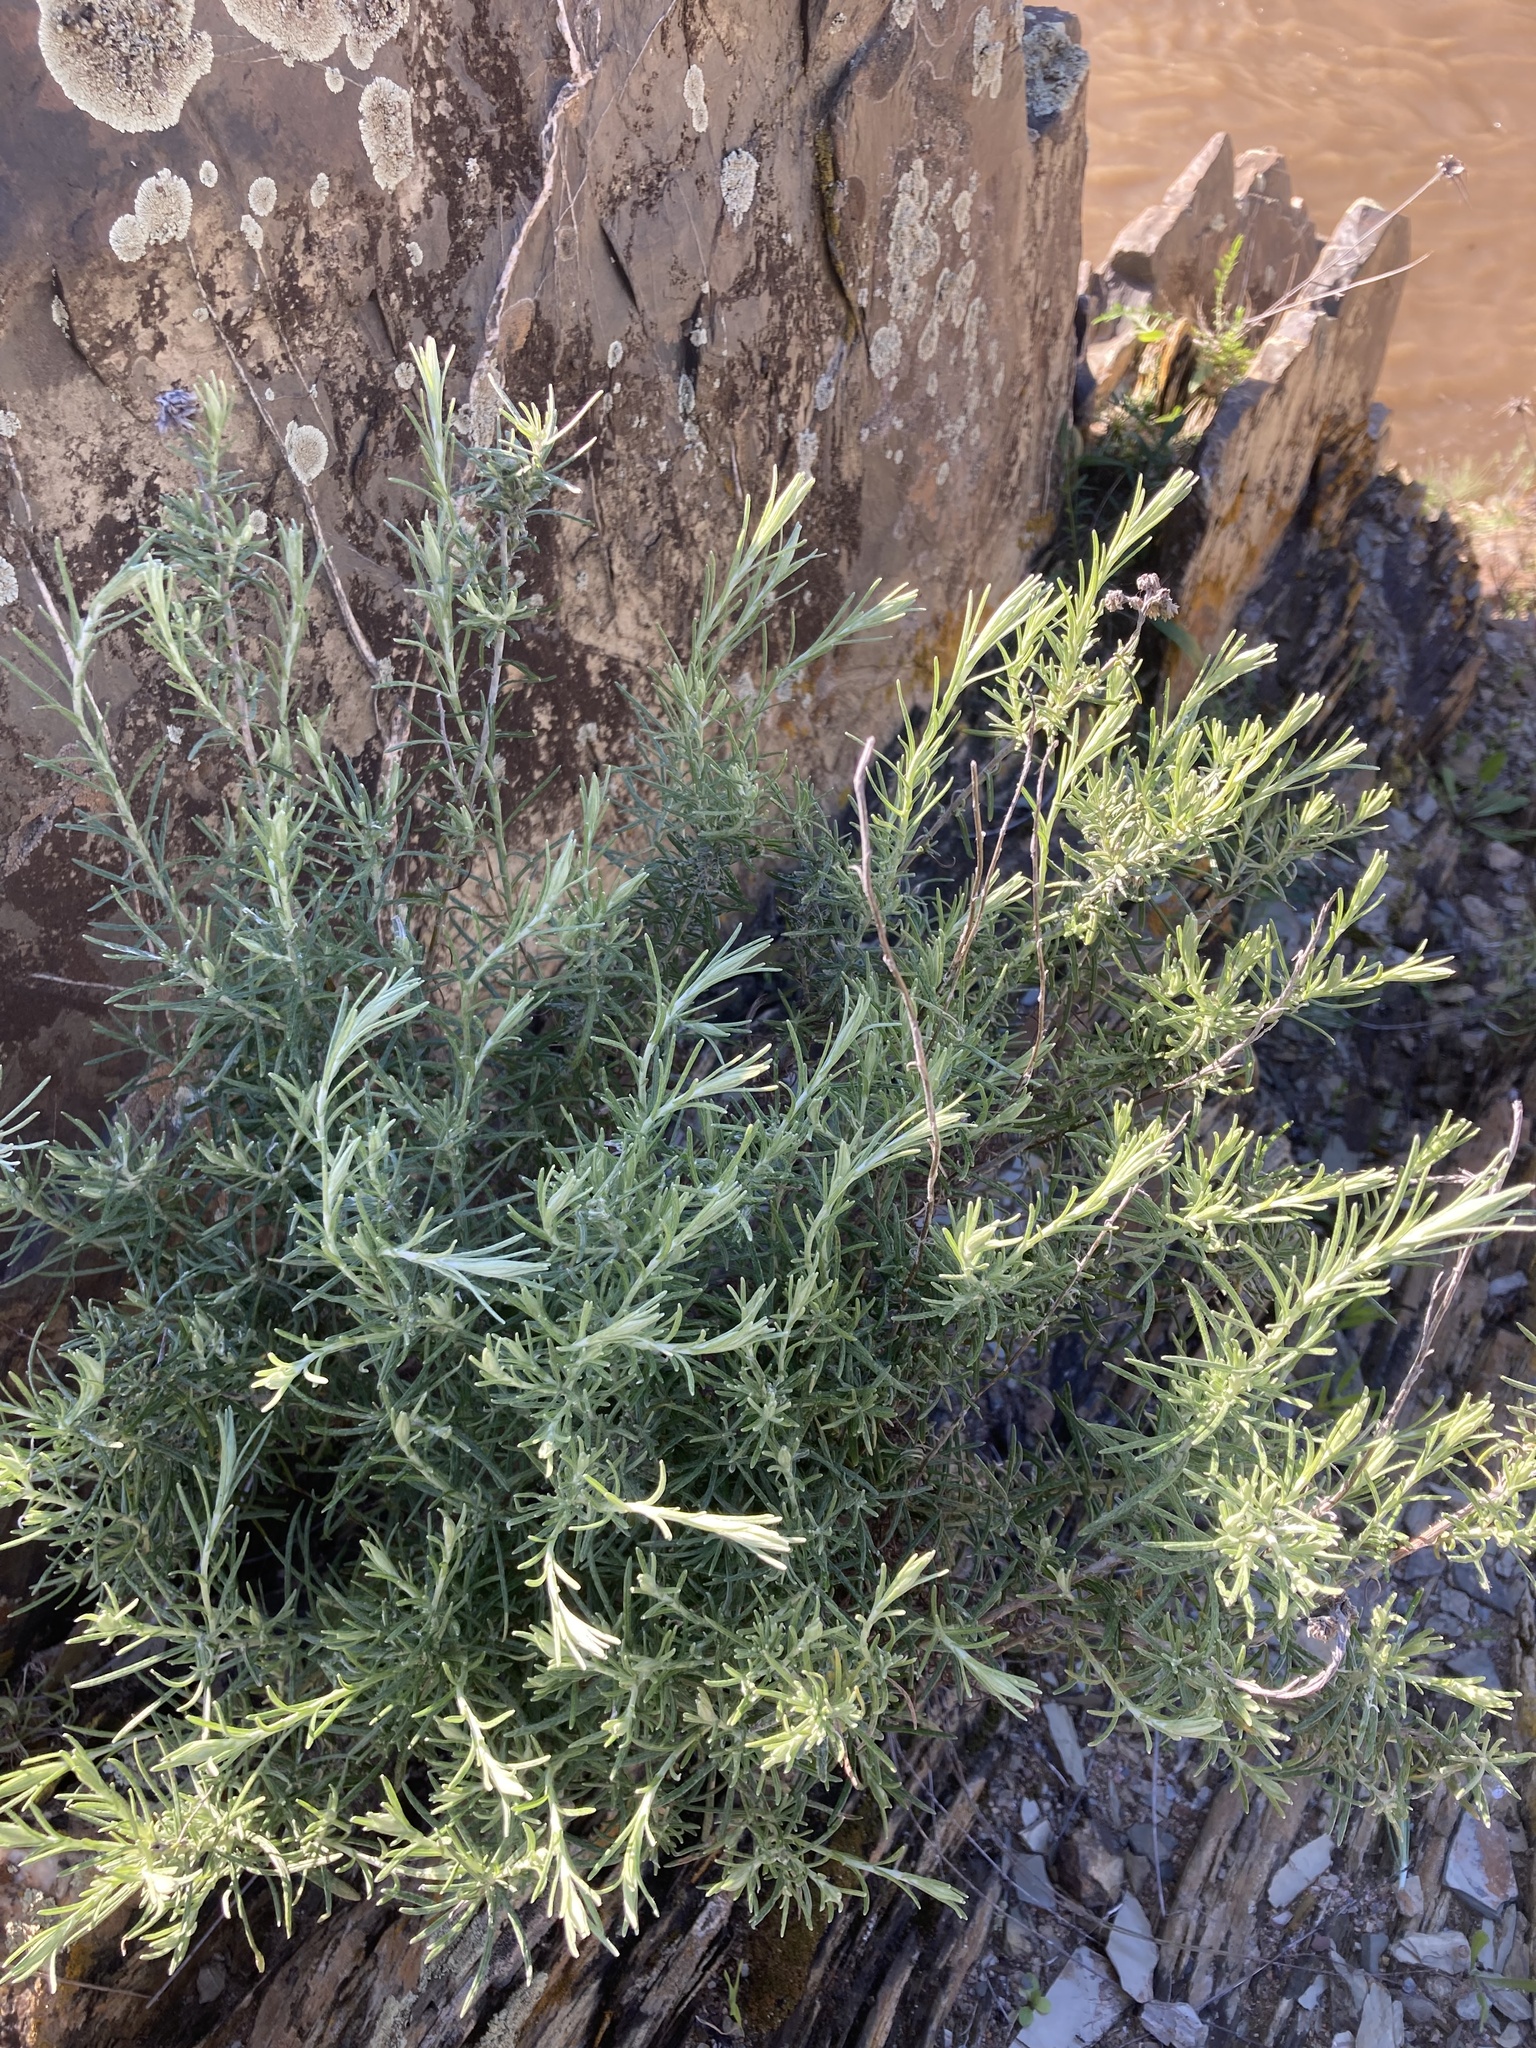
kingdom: Plantae
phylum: Tracheophyta
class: Magnoliopsida
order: Asterales
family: Asteraceae
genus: Helichrysum
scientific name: Helichrysum stoechas
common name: Goldilocks
